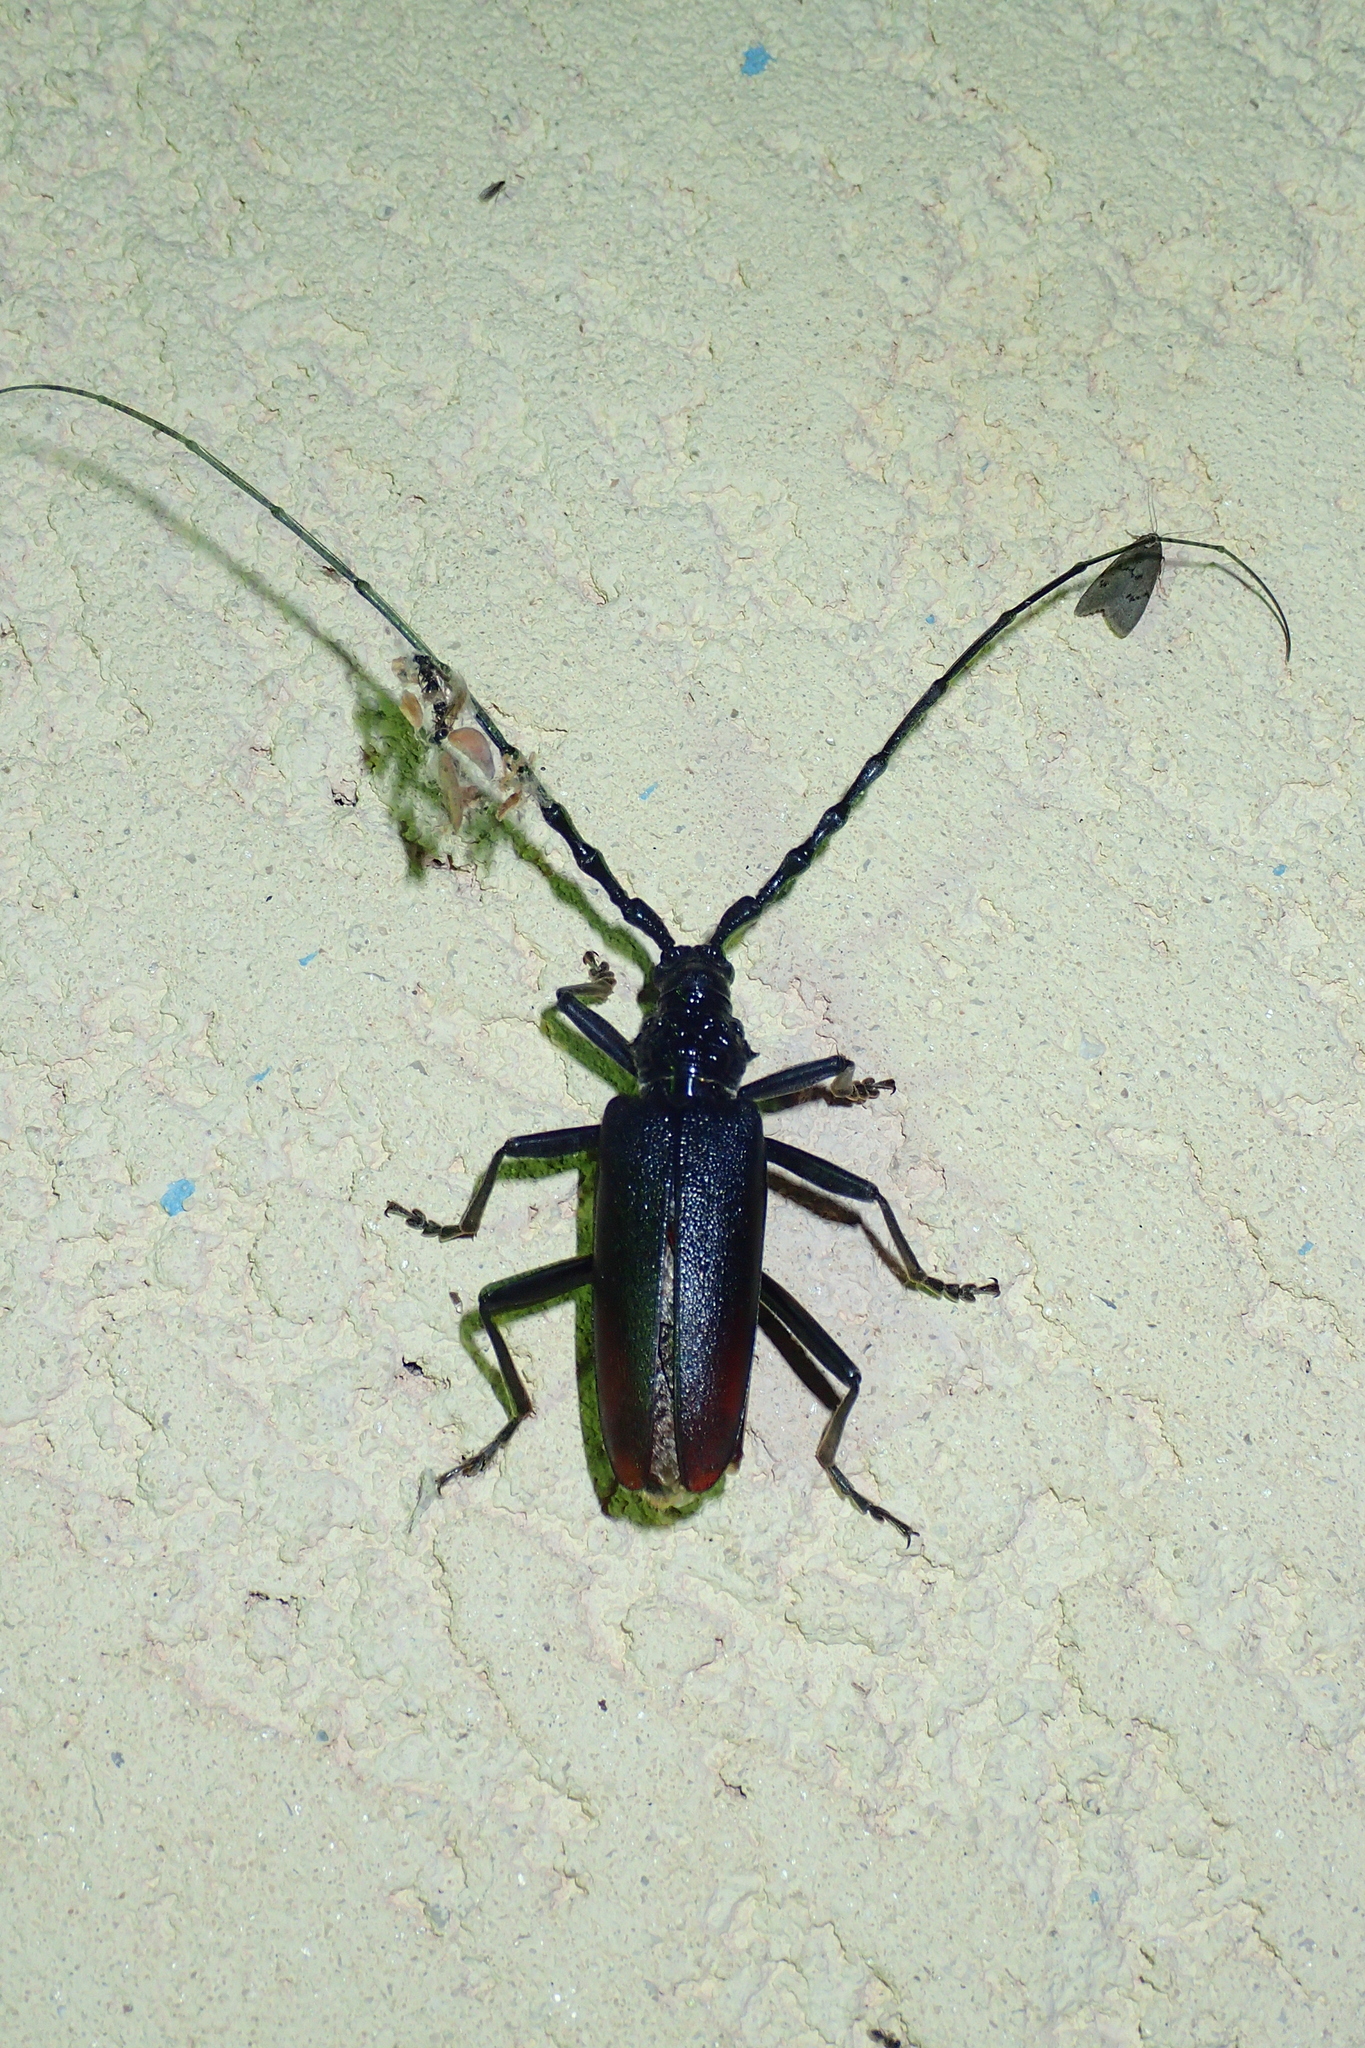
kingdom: Animalia
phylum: Arthropoda
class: Insecta
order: Coleoptera
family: Cerambycidae
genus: Cerambyx
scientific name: Cerambyx cerdo
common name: Cerambyx longicorn
